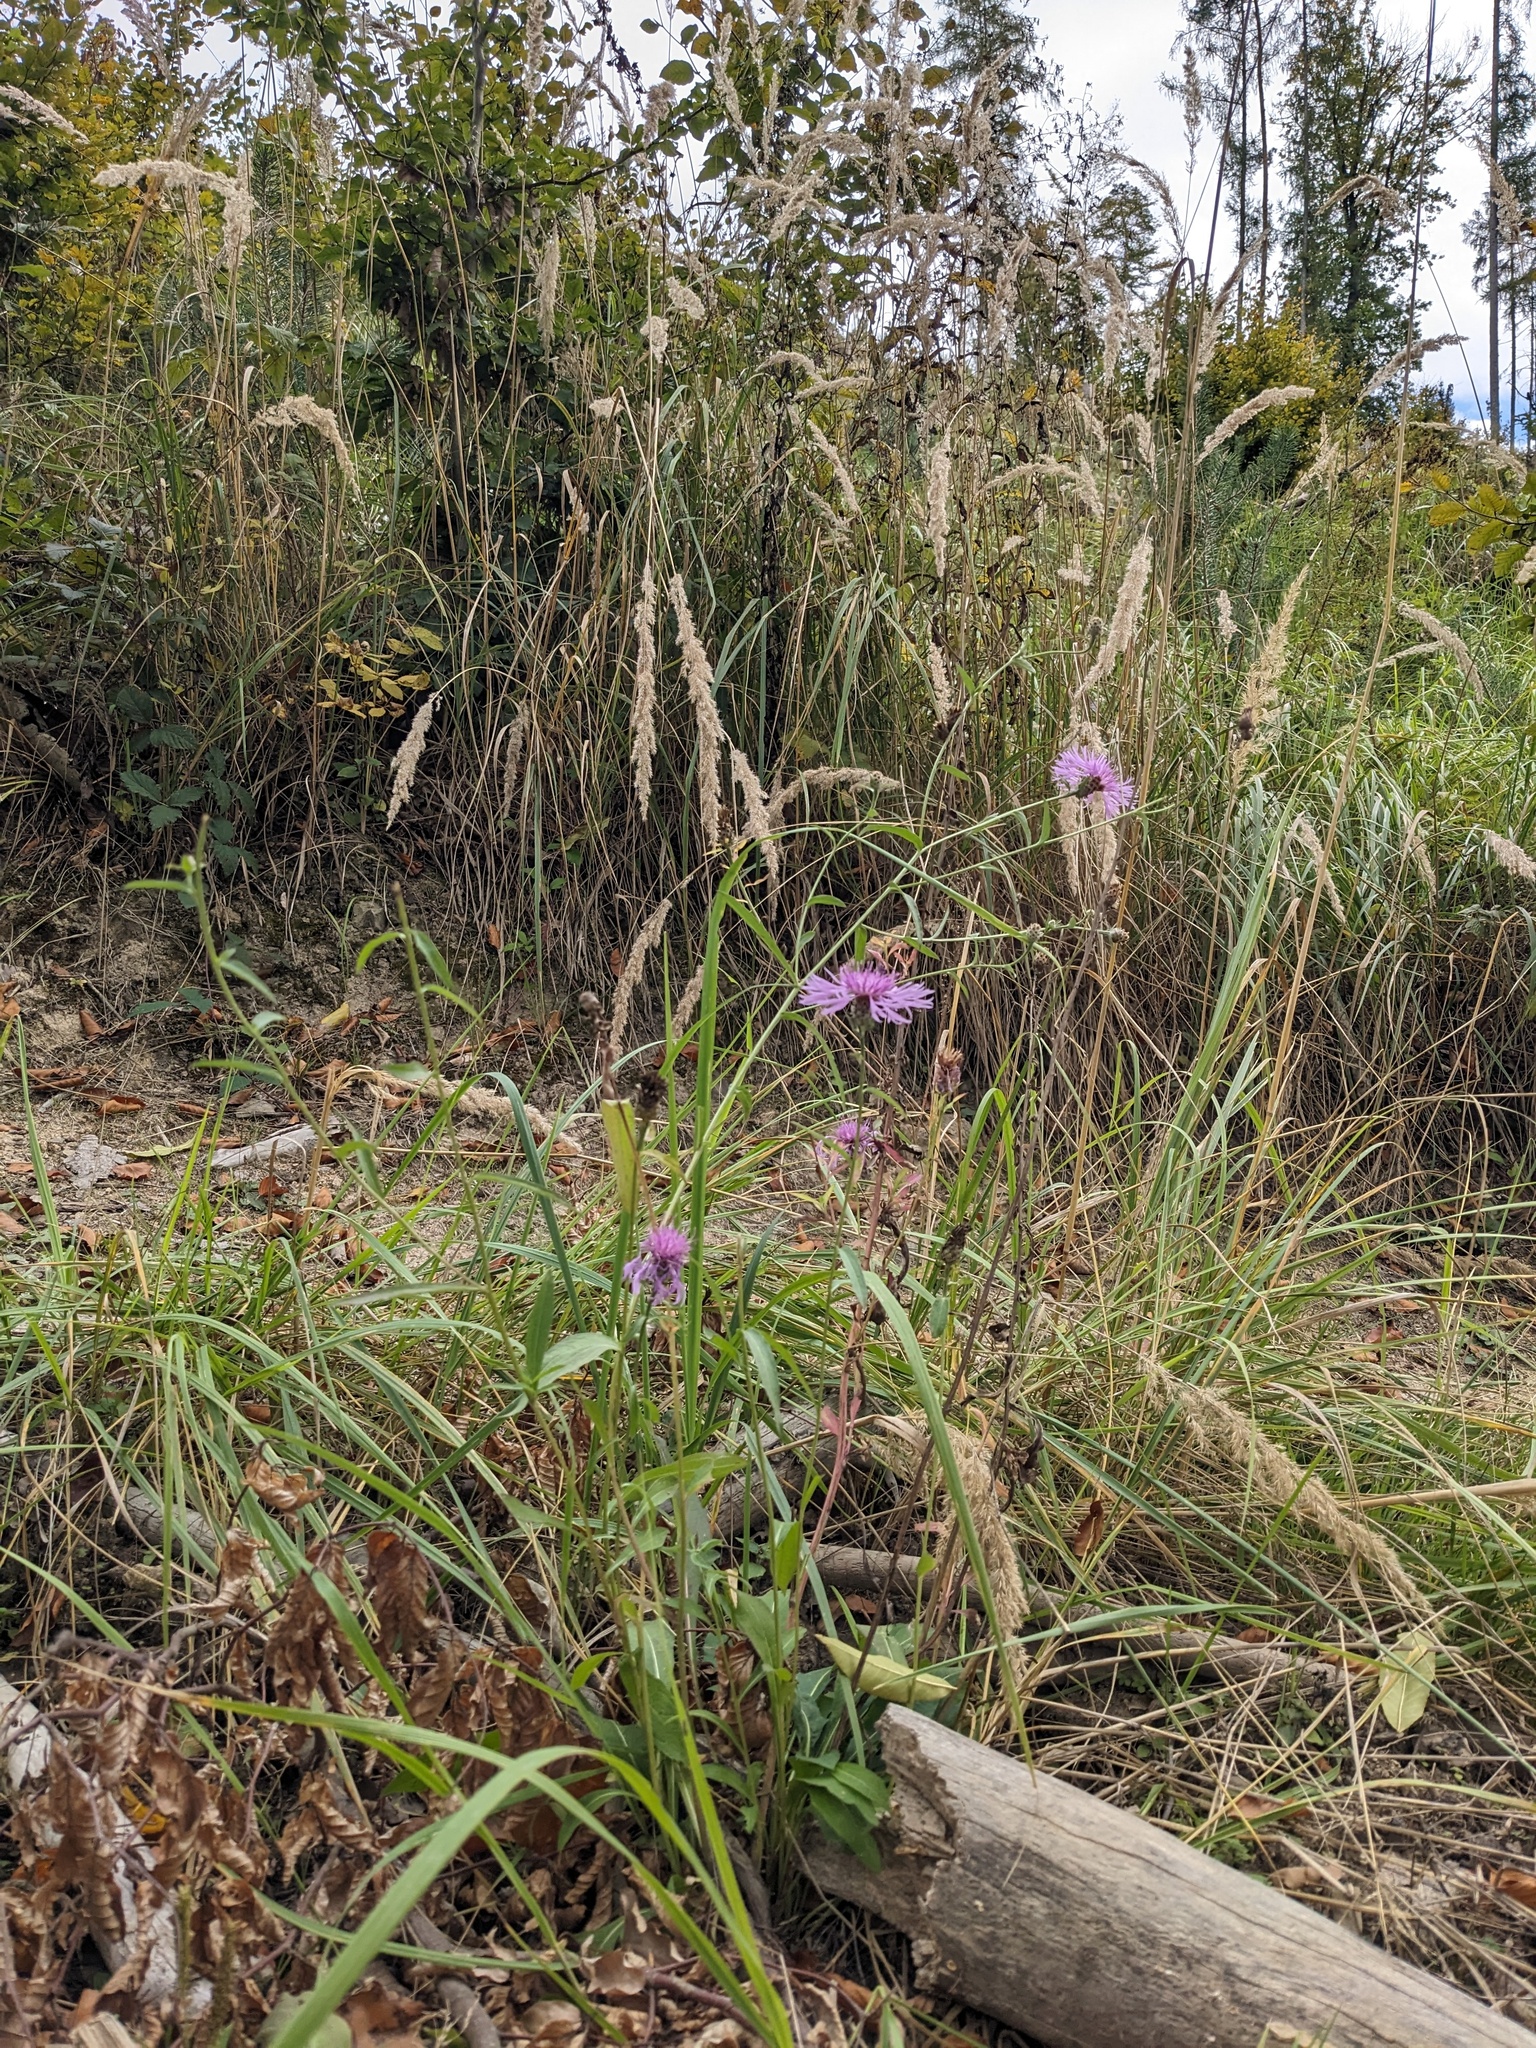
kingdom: Plantae
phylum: Tracheophyta
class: Magnoliopsida
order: Asterales
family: Asteraceae
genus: Centaurea
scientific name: Centaurea jacea
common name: Brown knapweed
